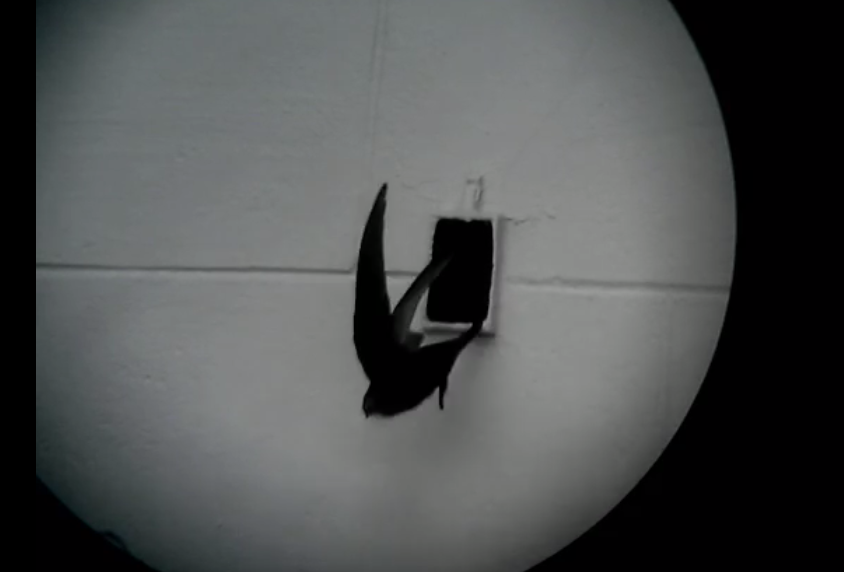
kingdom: Animalia
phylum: Chordata
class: Aves
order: Apodiformes
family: Apodidae
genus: Apus
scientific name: Apus apus
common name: Common swift
